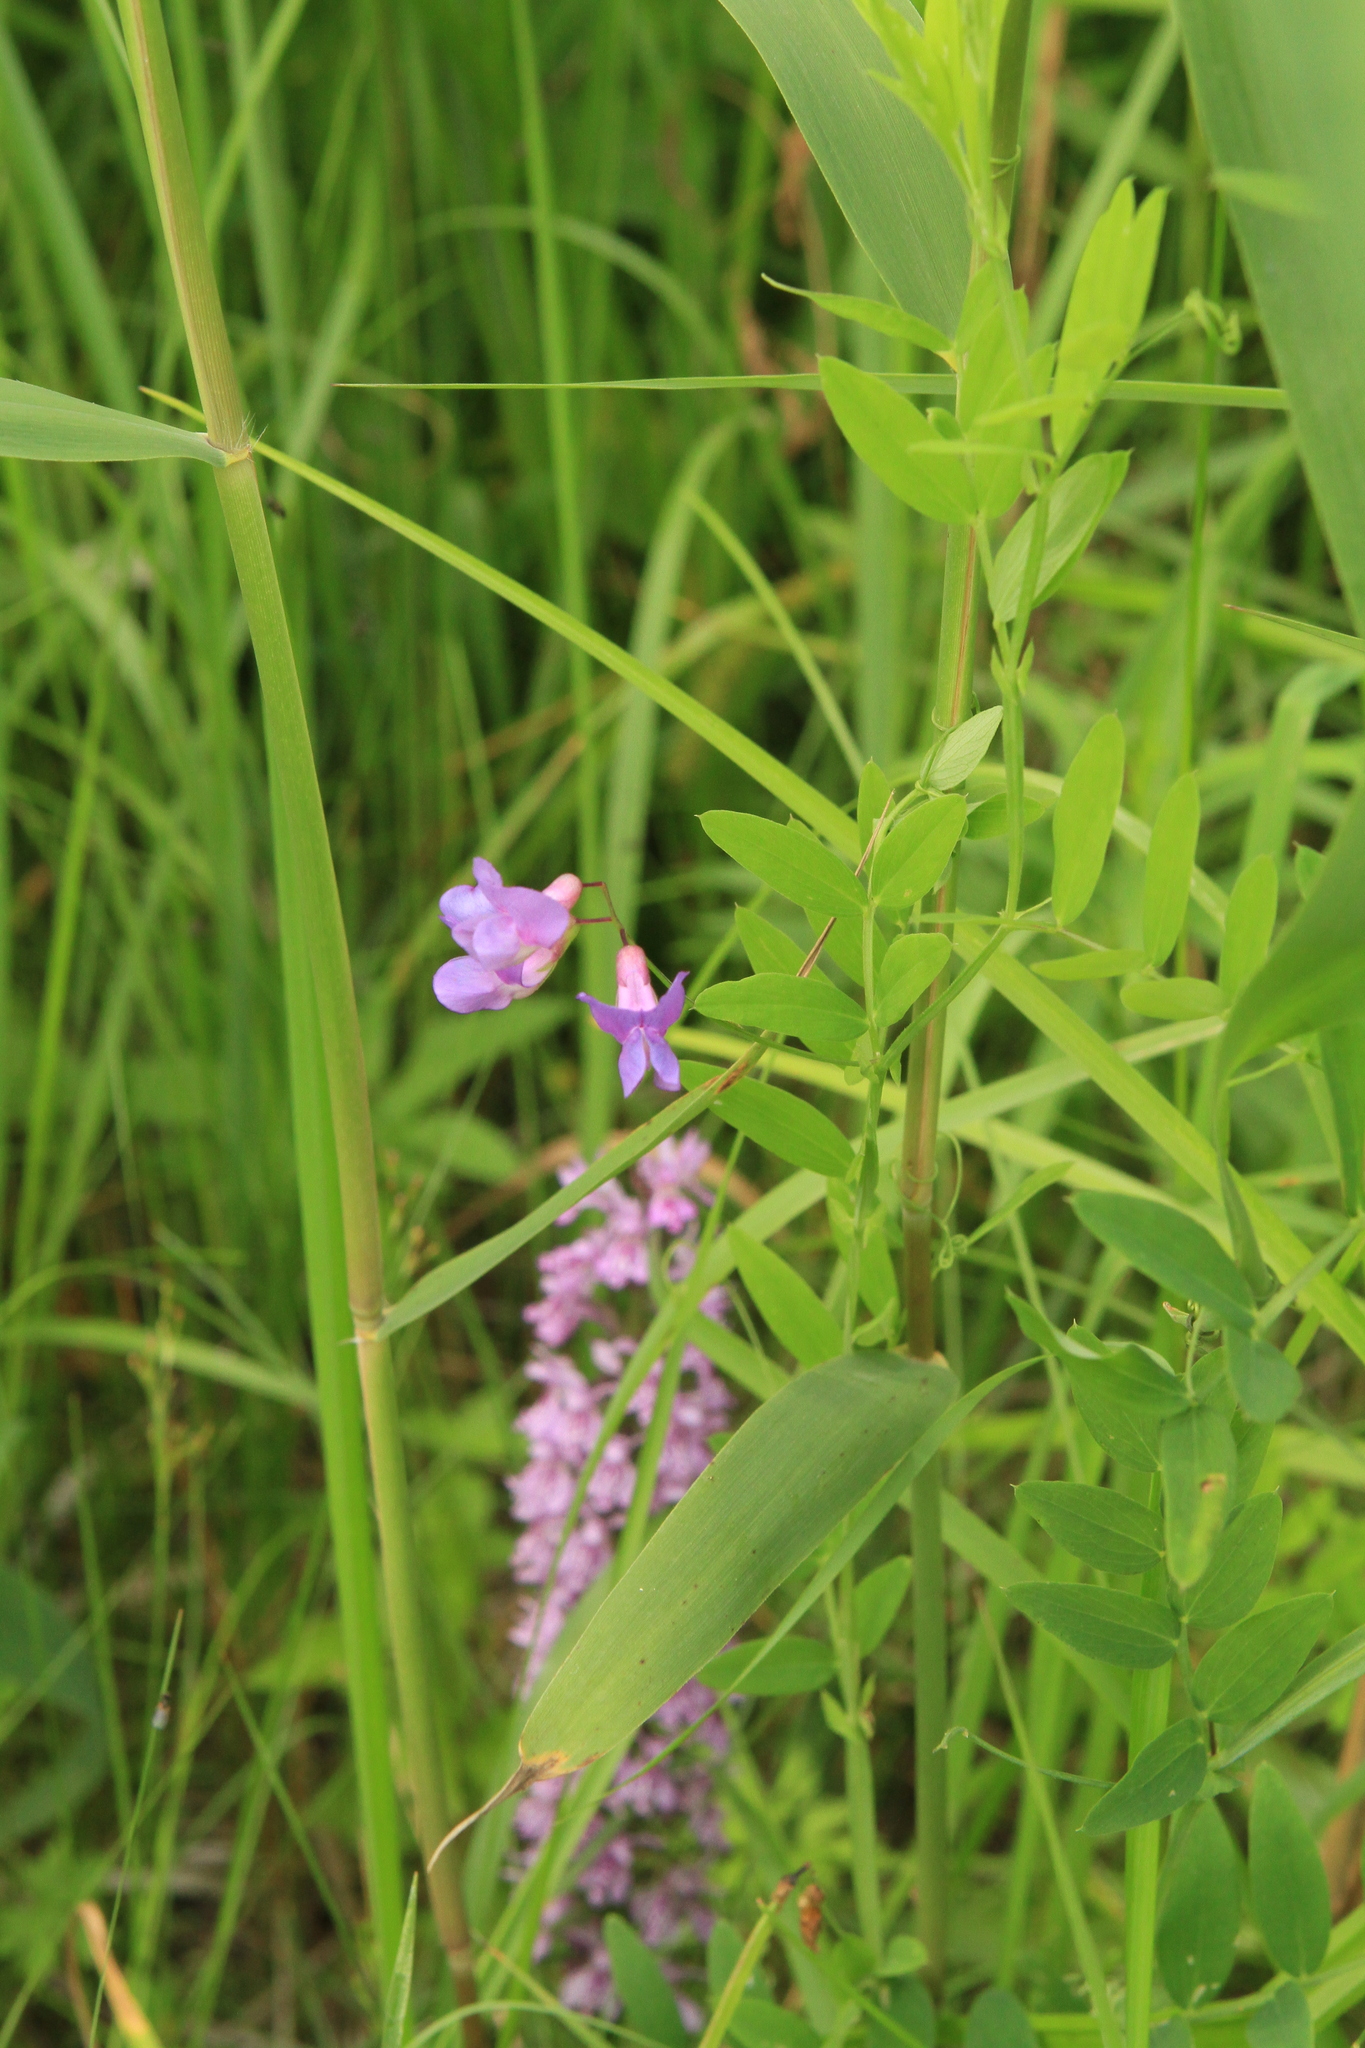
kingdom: Plantae
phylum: Tracheophyta
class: Magnoliopsida
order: Fabales
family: Fabaceae
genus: Lathyrus
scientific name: Lathyrus palustris
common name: Marsh pea
